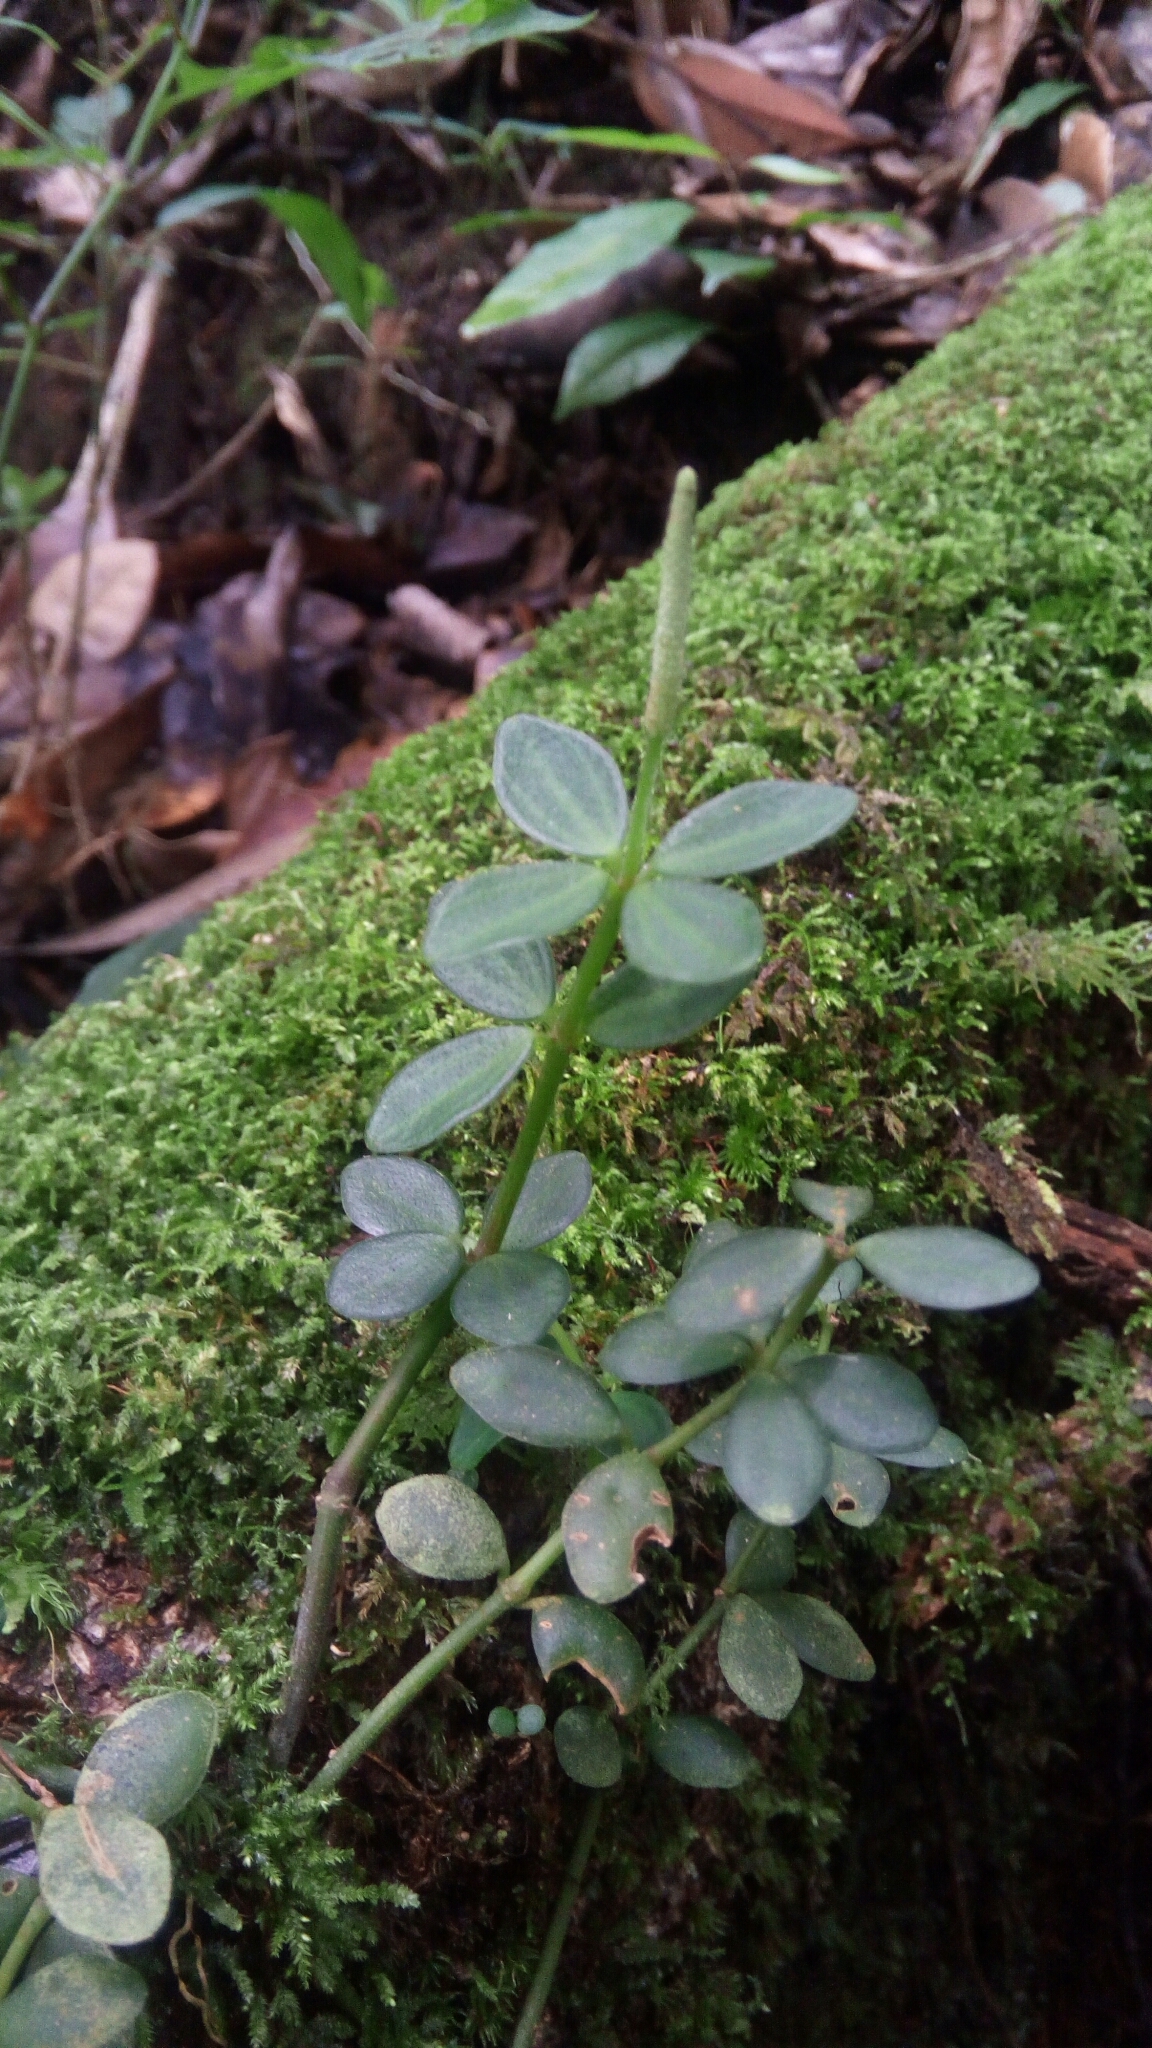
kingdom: Plantae
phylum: Tracheophyta
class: Magnoliopsida
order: Piperales
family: Piperaceae
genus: Peperomia
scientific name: Peperomia tetraphylla
